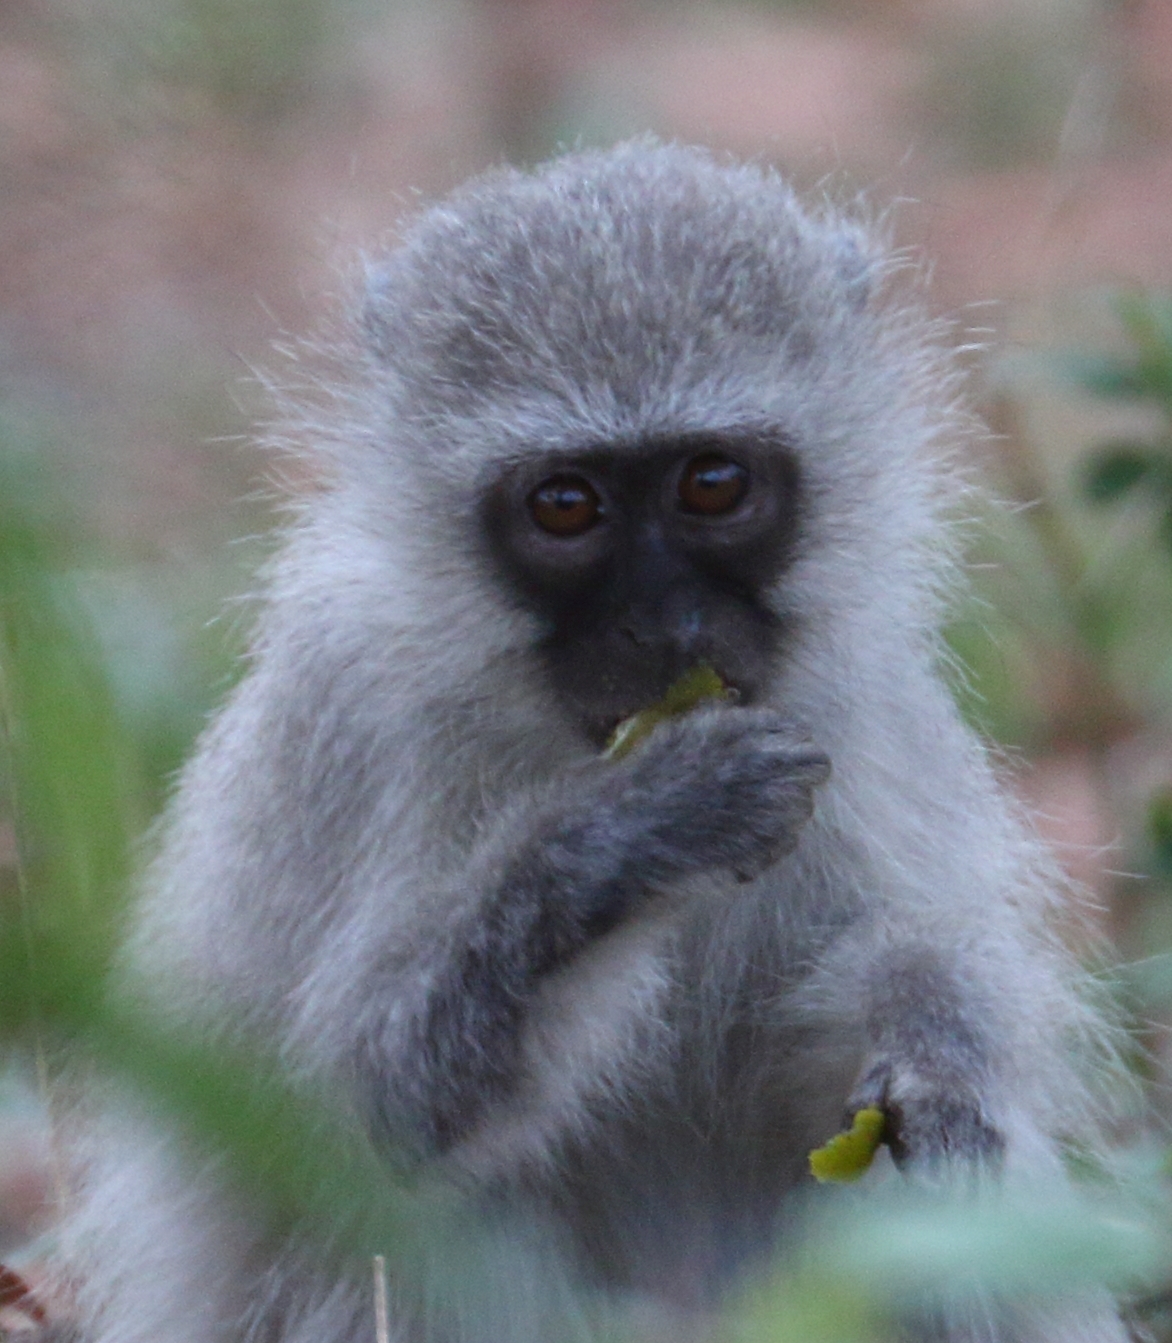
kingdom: Animalia
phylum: Chordata
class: Mammalia
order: Primates
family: Cercopithecidae
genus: Chlorocebus
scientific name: Chlorocebus pygerythrus
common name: Vervet monkey
